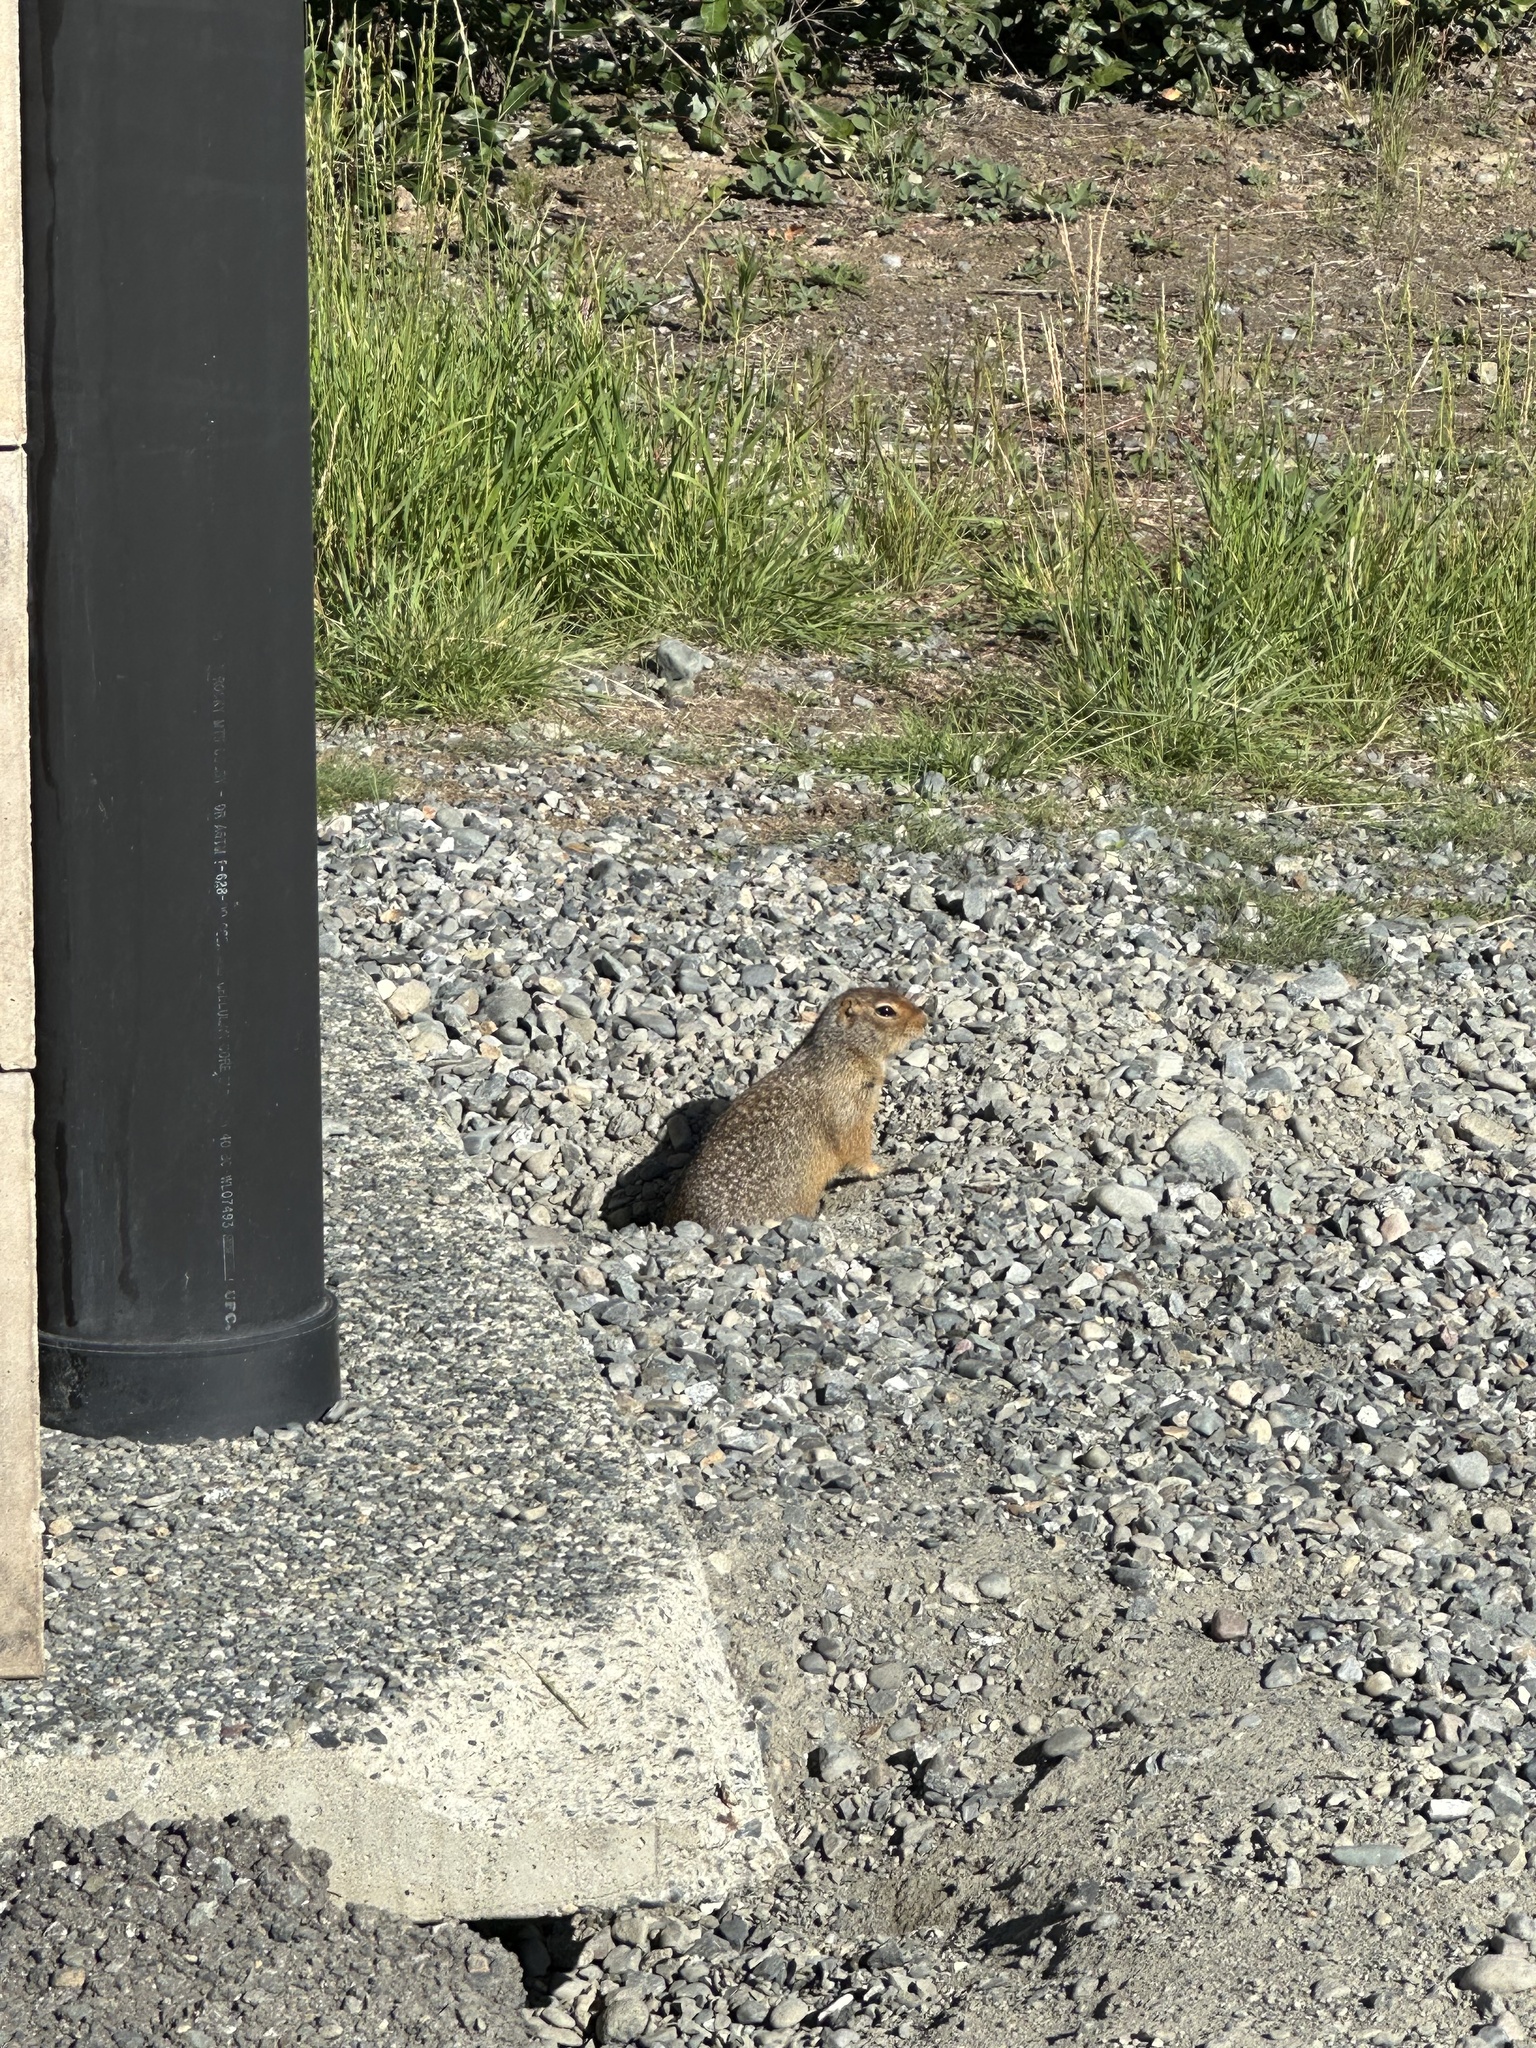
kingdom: Animalia
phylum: Chordata
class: Mammalia
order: Rodentia
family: Sciuridae
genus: Urocitellus
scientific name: Urocitellus parryii
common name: Arctic ground squirrel
